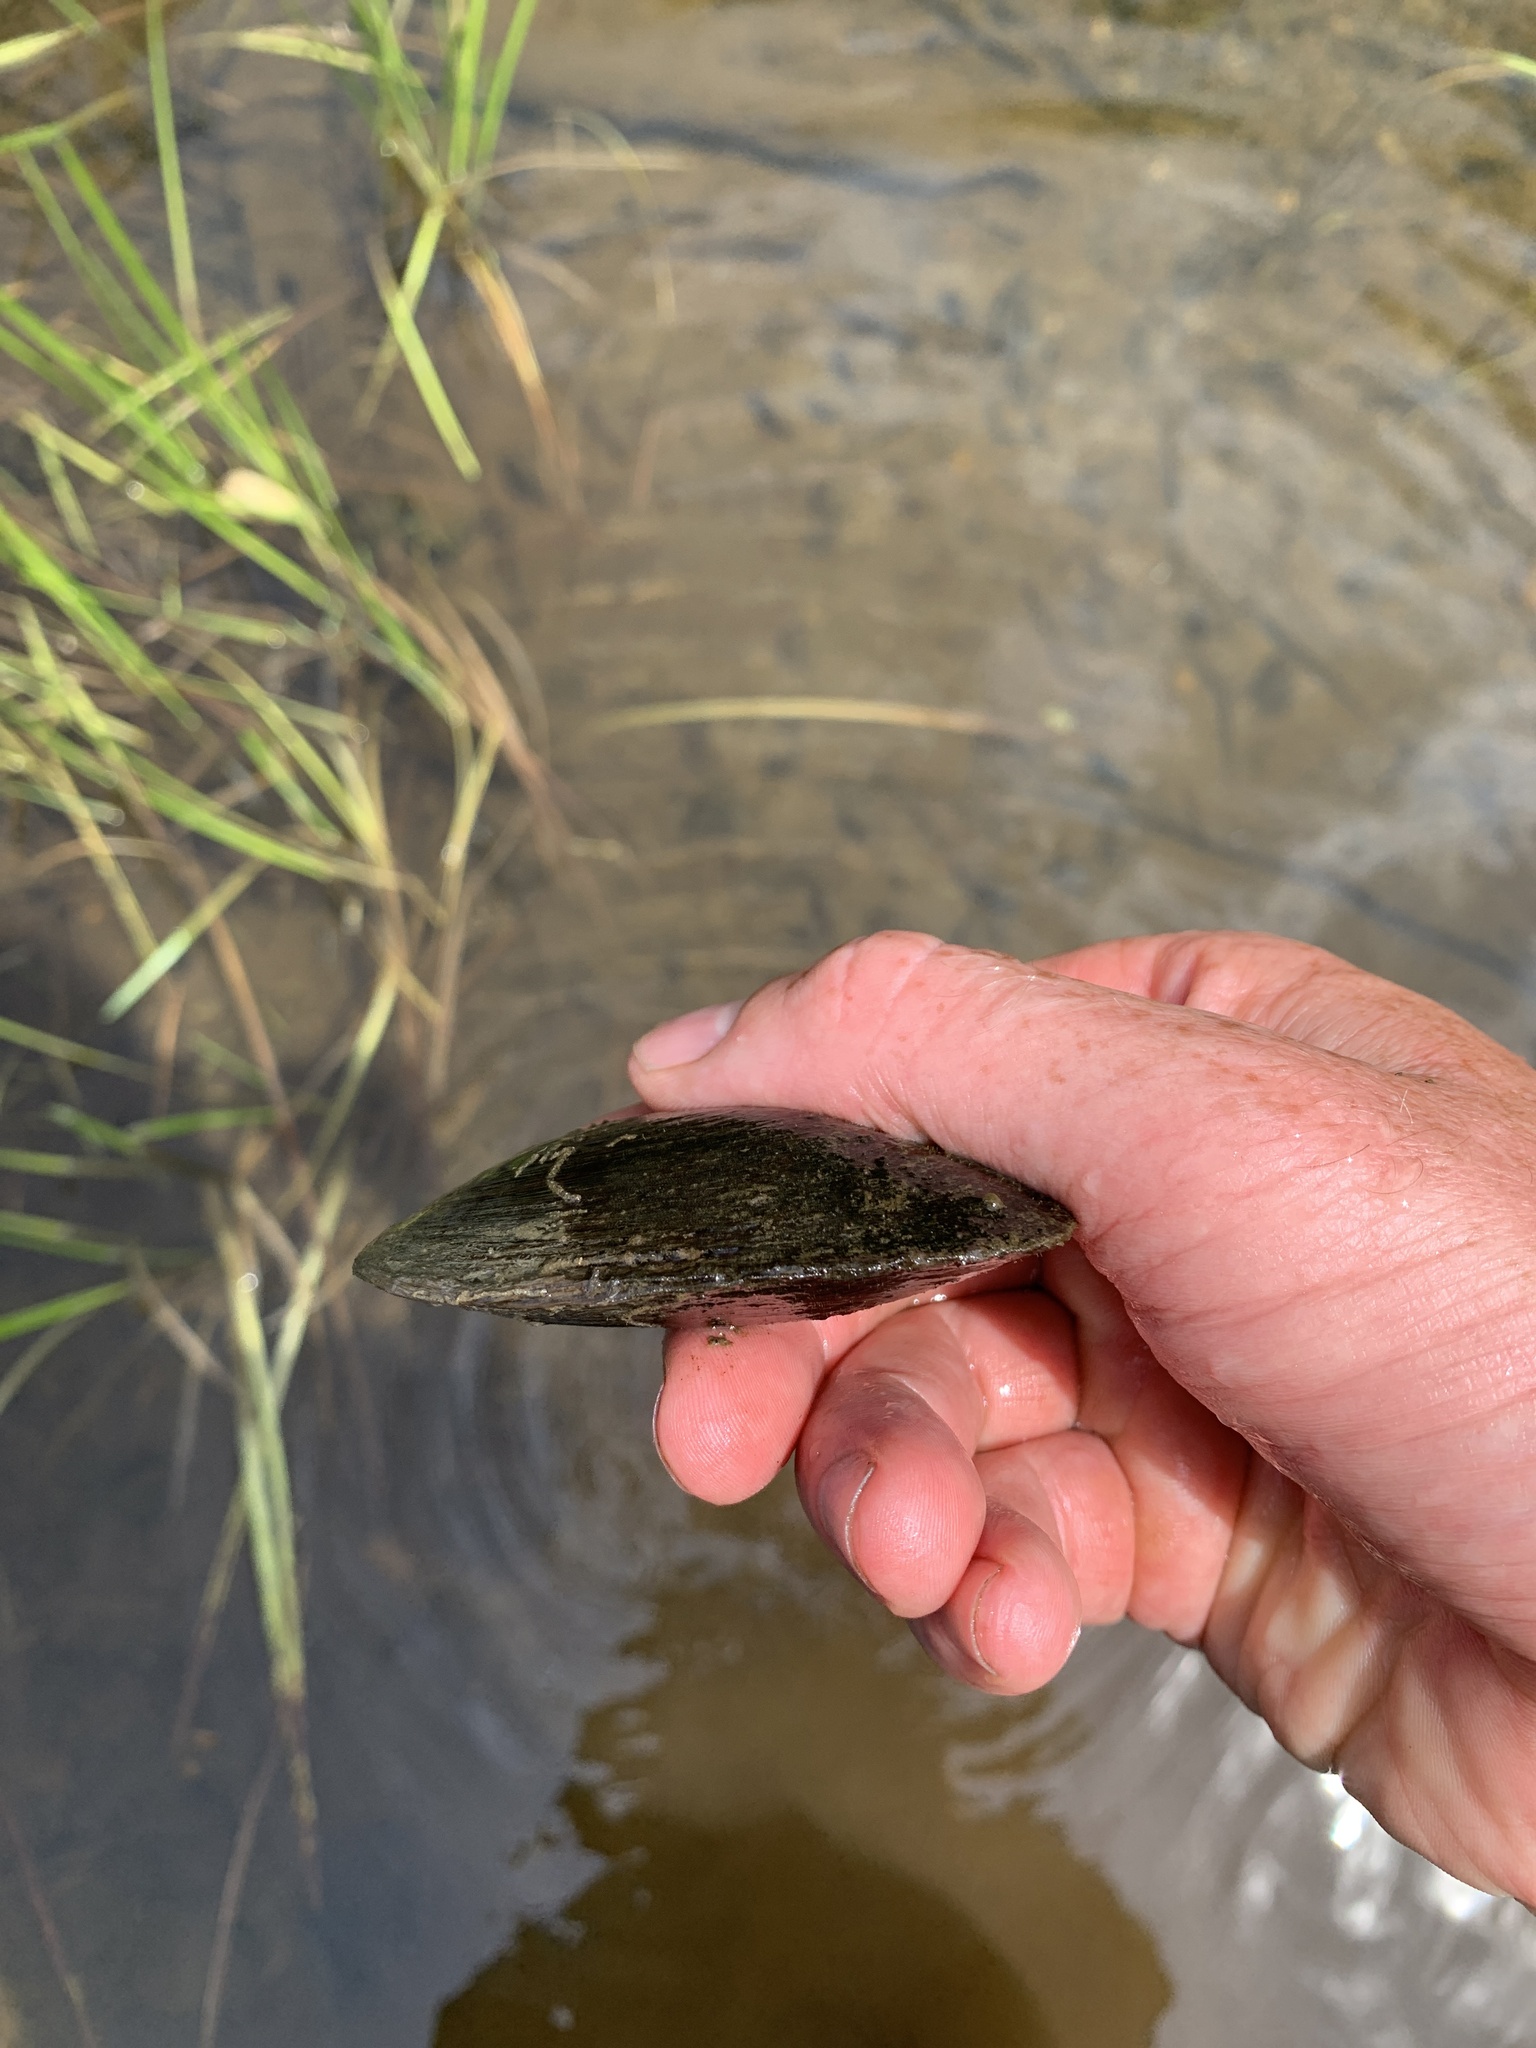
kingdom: Animalia
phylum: Mollusca
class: Bivalvia
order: Unionida
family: Unionidae
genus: Elliptio
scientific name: Elliptio complanata
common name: Eastern elliptio
